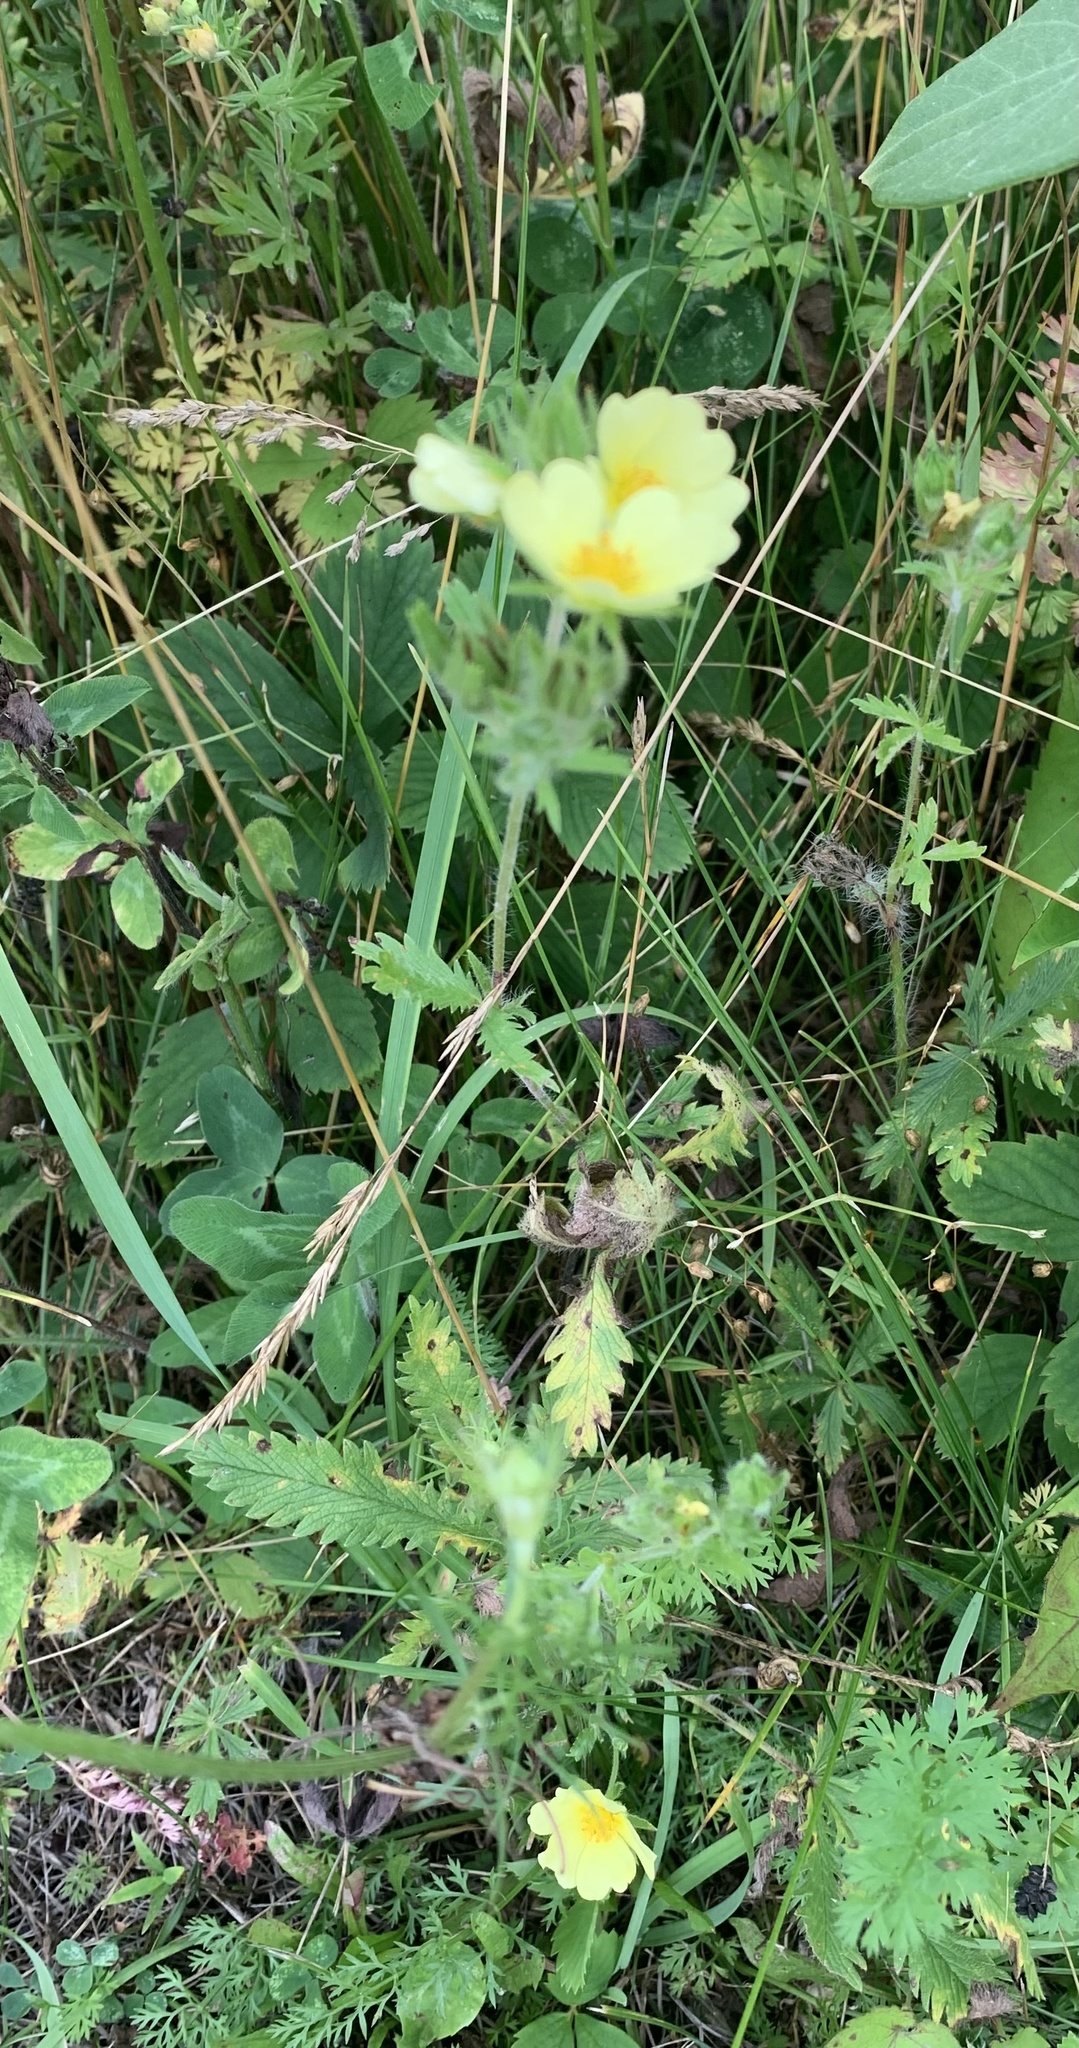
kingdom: Plantae
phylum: Tracheophyta
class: Magnoliopsida
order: Rosales
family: Rosaceae
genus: Potentilla
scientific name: Potentilla recta
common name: Sulphur cinquefoil
